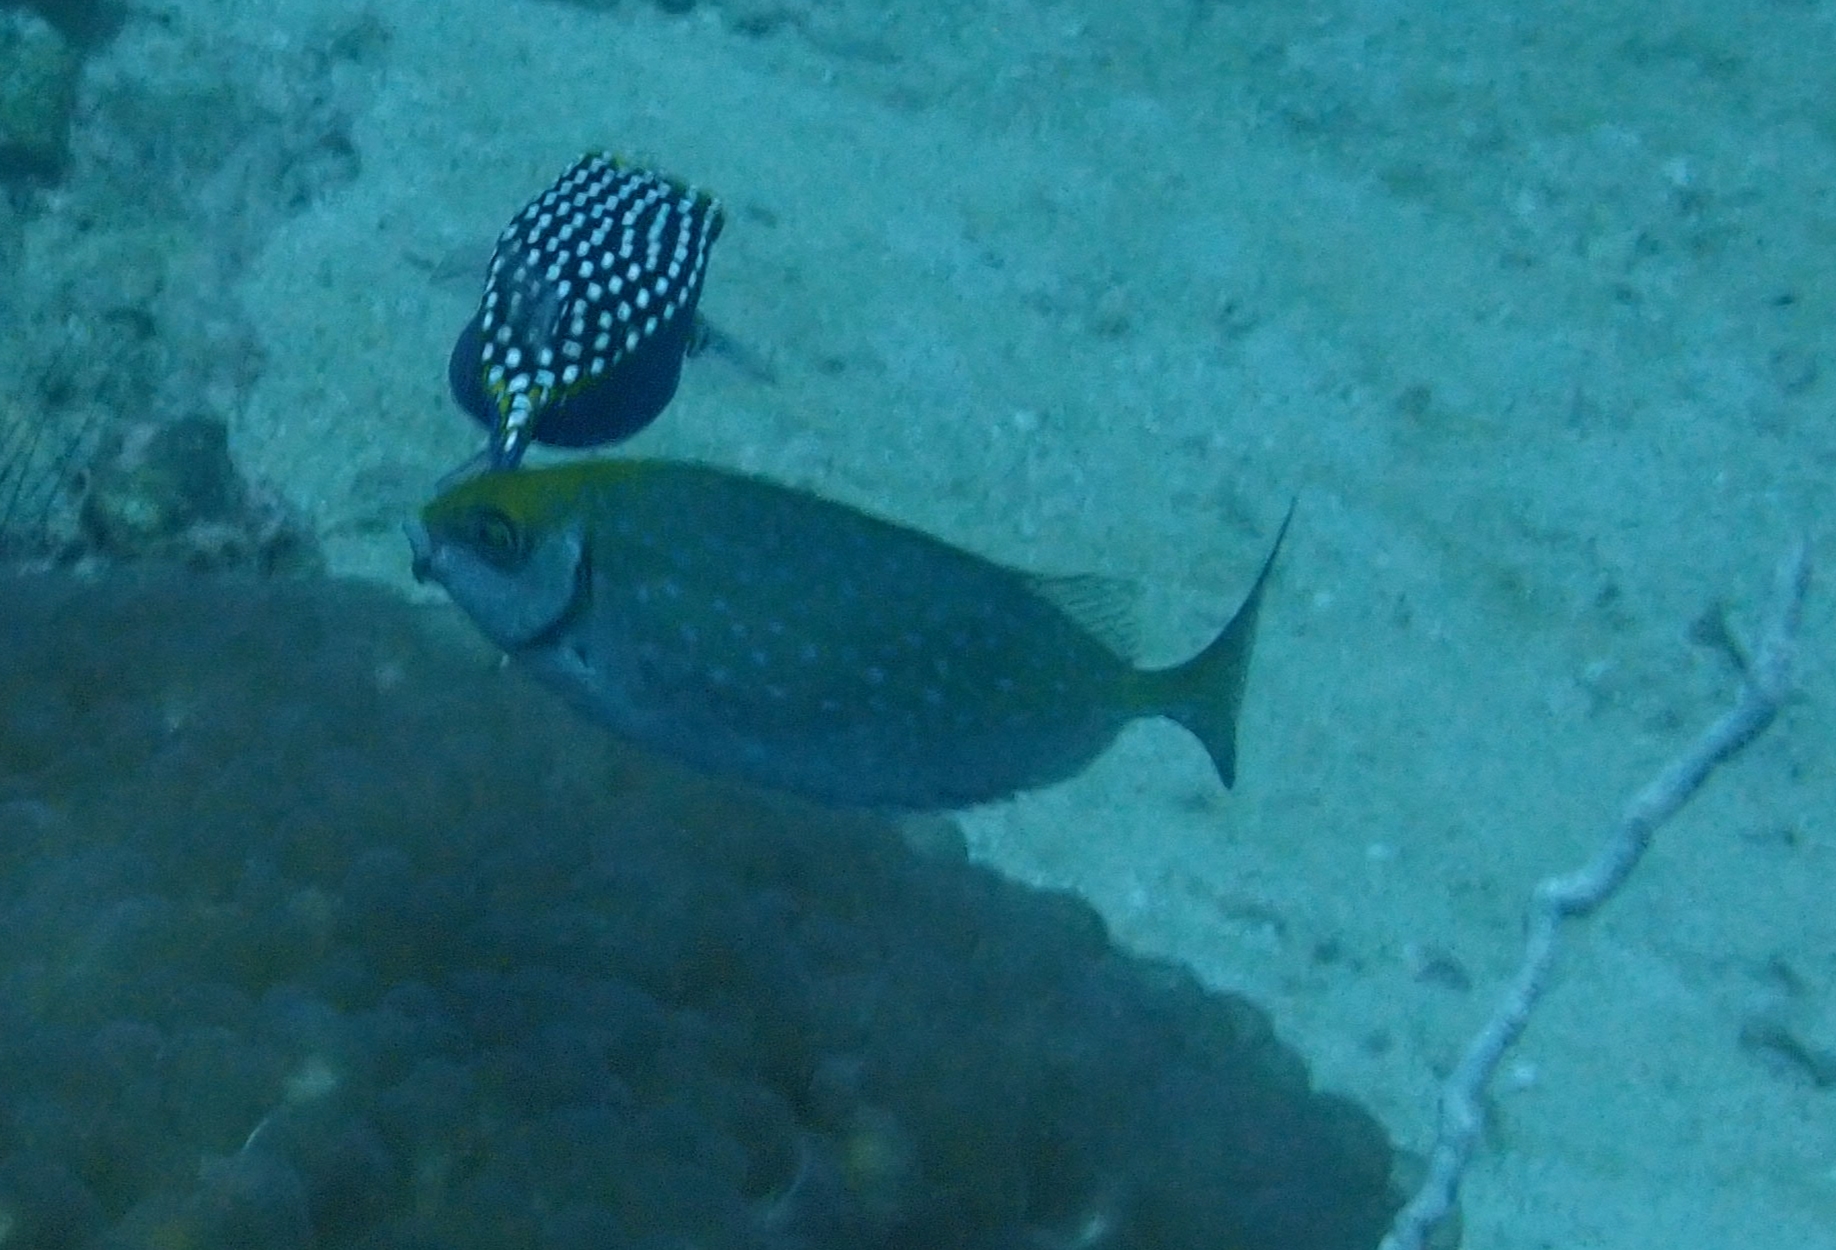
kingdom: Animalia
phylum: Chordata
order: Perciformes
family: Siganidae
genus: Siganus
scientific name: Siganus fuscescens
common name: Dusky rabbitfish
